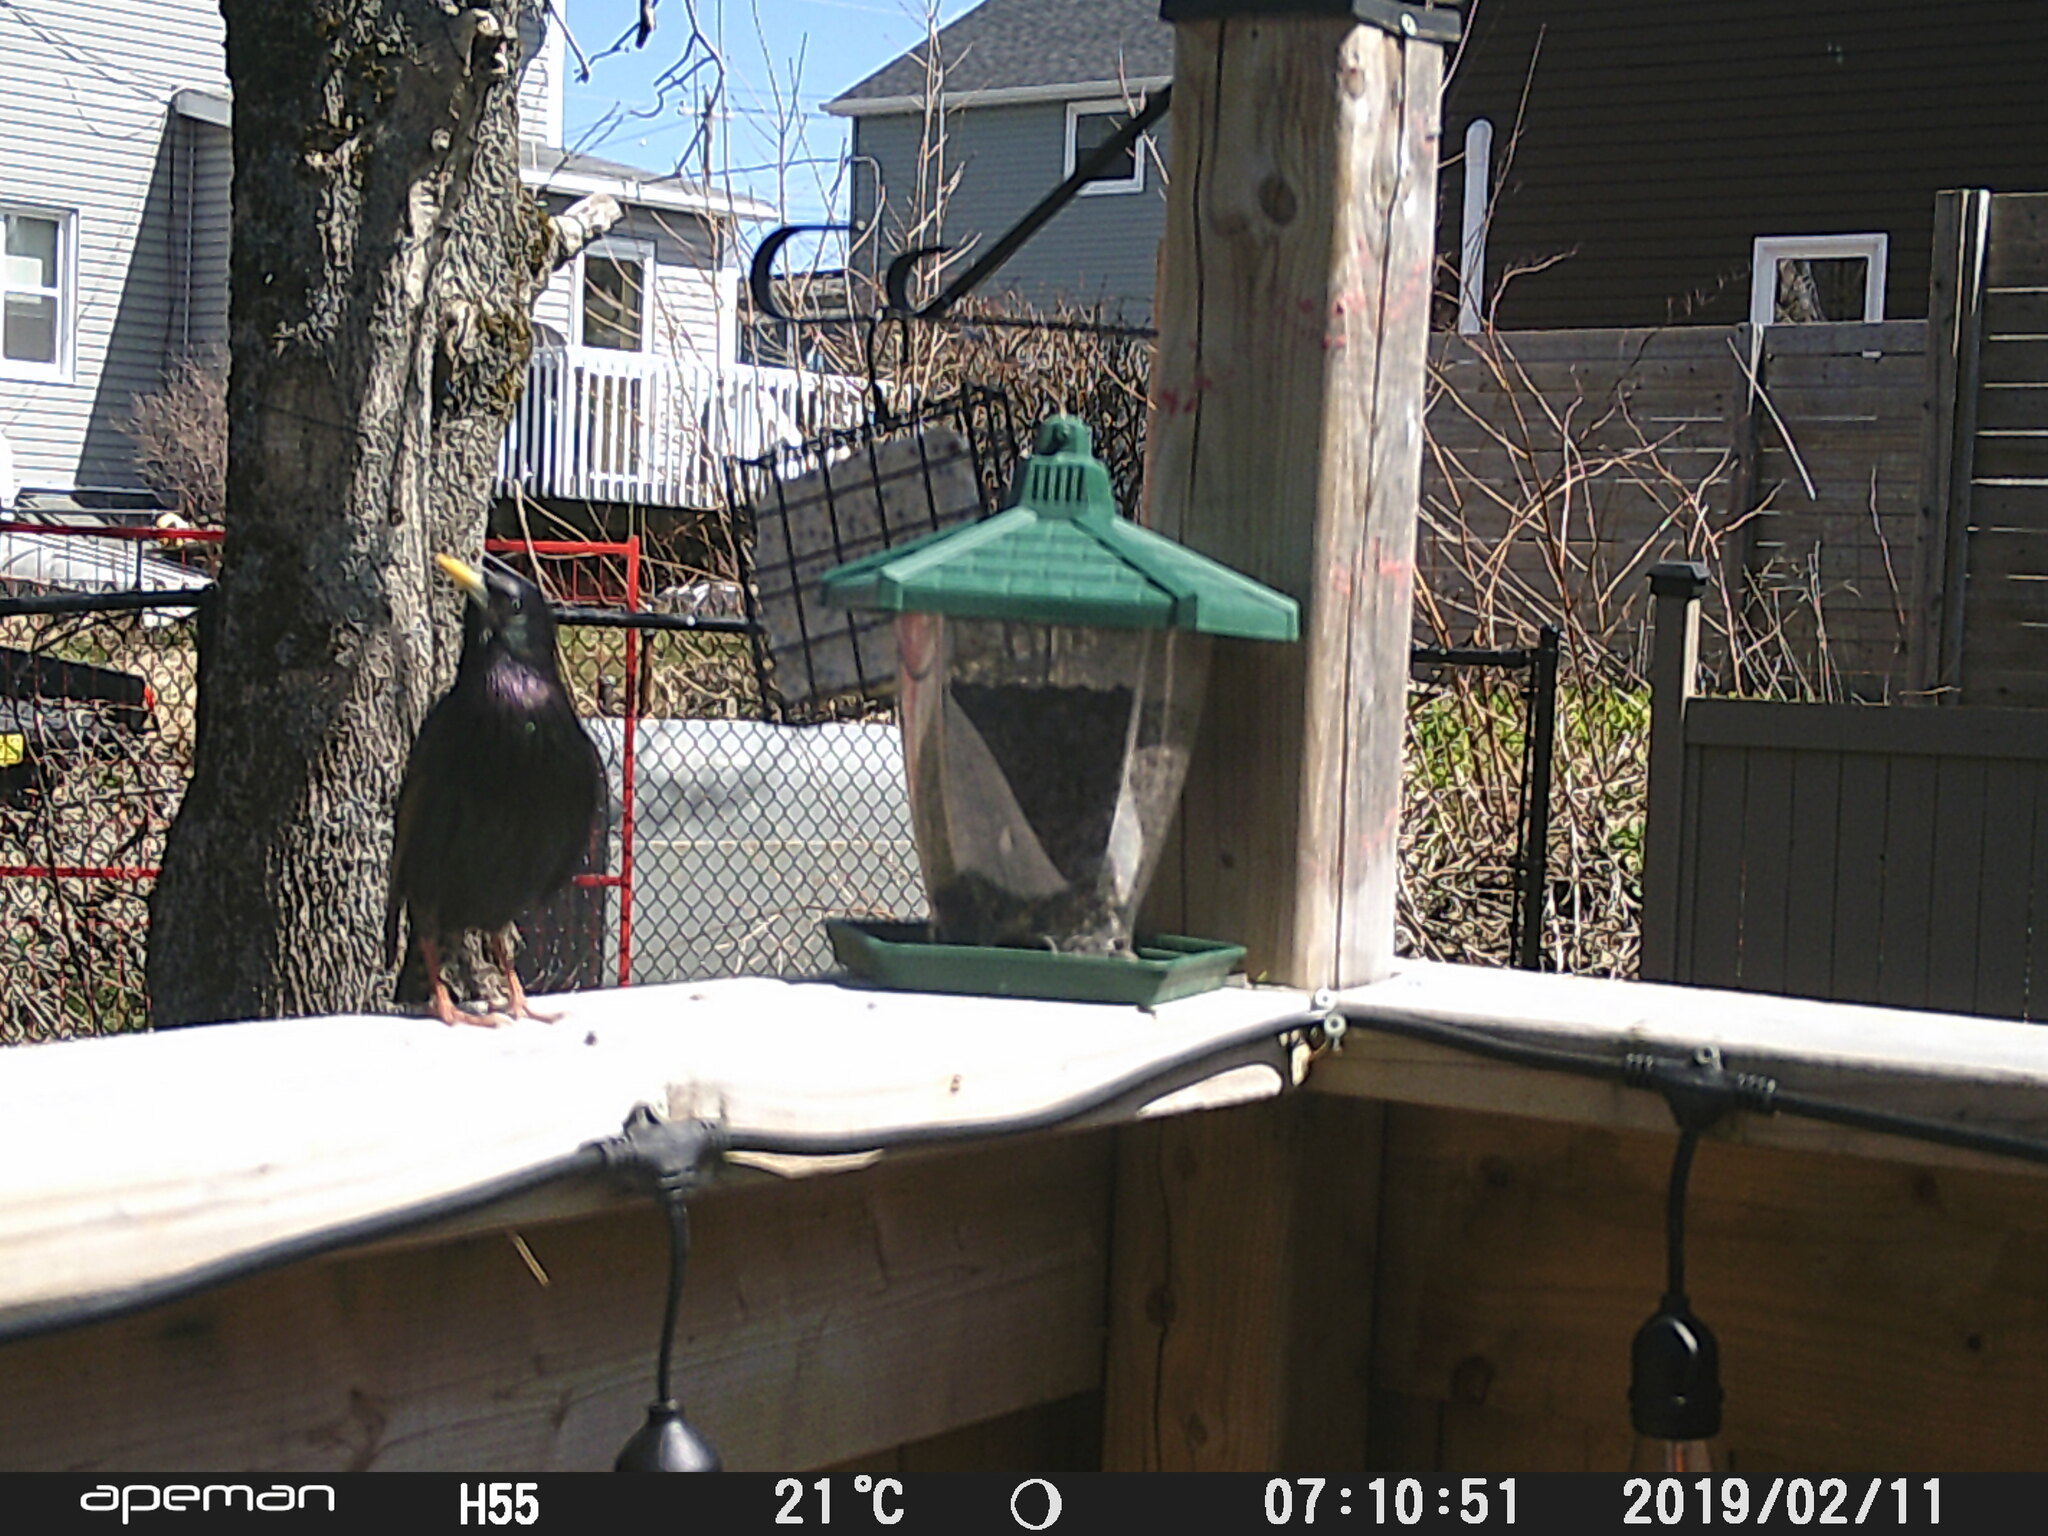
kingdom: Animalia
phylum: Chordata
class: Aves
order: Passeriformes
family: Sturnidae
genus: Sturnus
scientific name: Sturnus vulgaris
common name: Common starling
